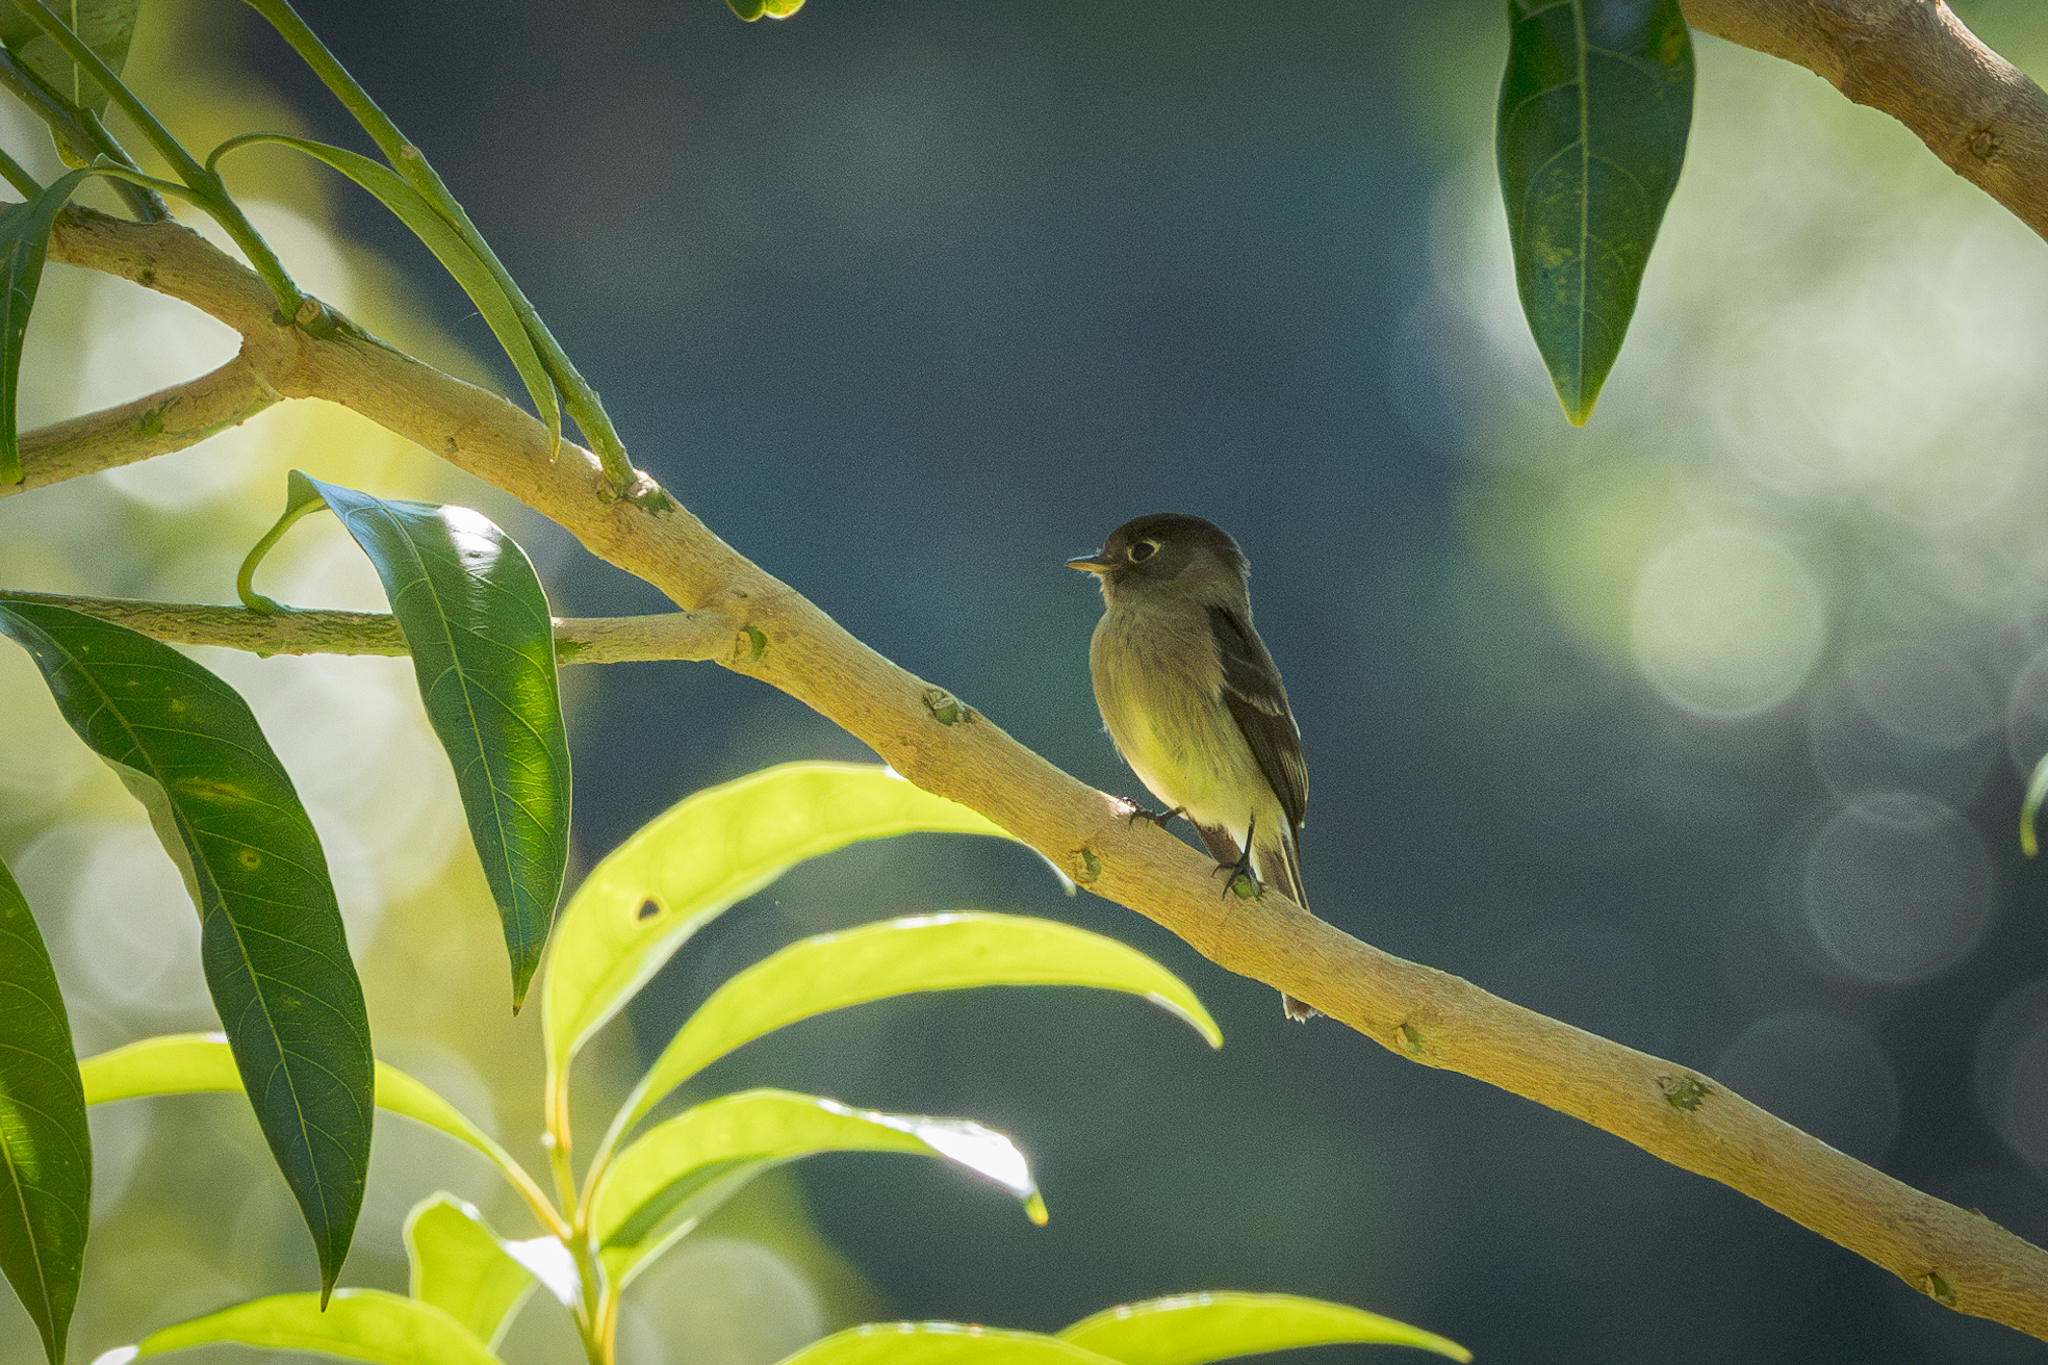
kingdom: Animalia
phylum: Chordata
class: Aves
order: Passeriformes
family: Tyrannidae
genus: Empidonax
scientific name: Empidonax atriceps
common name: Black-capped flycatcher
